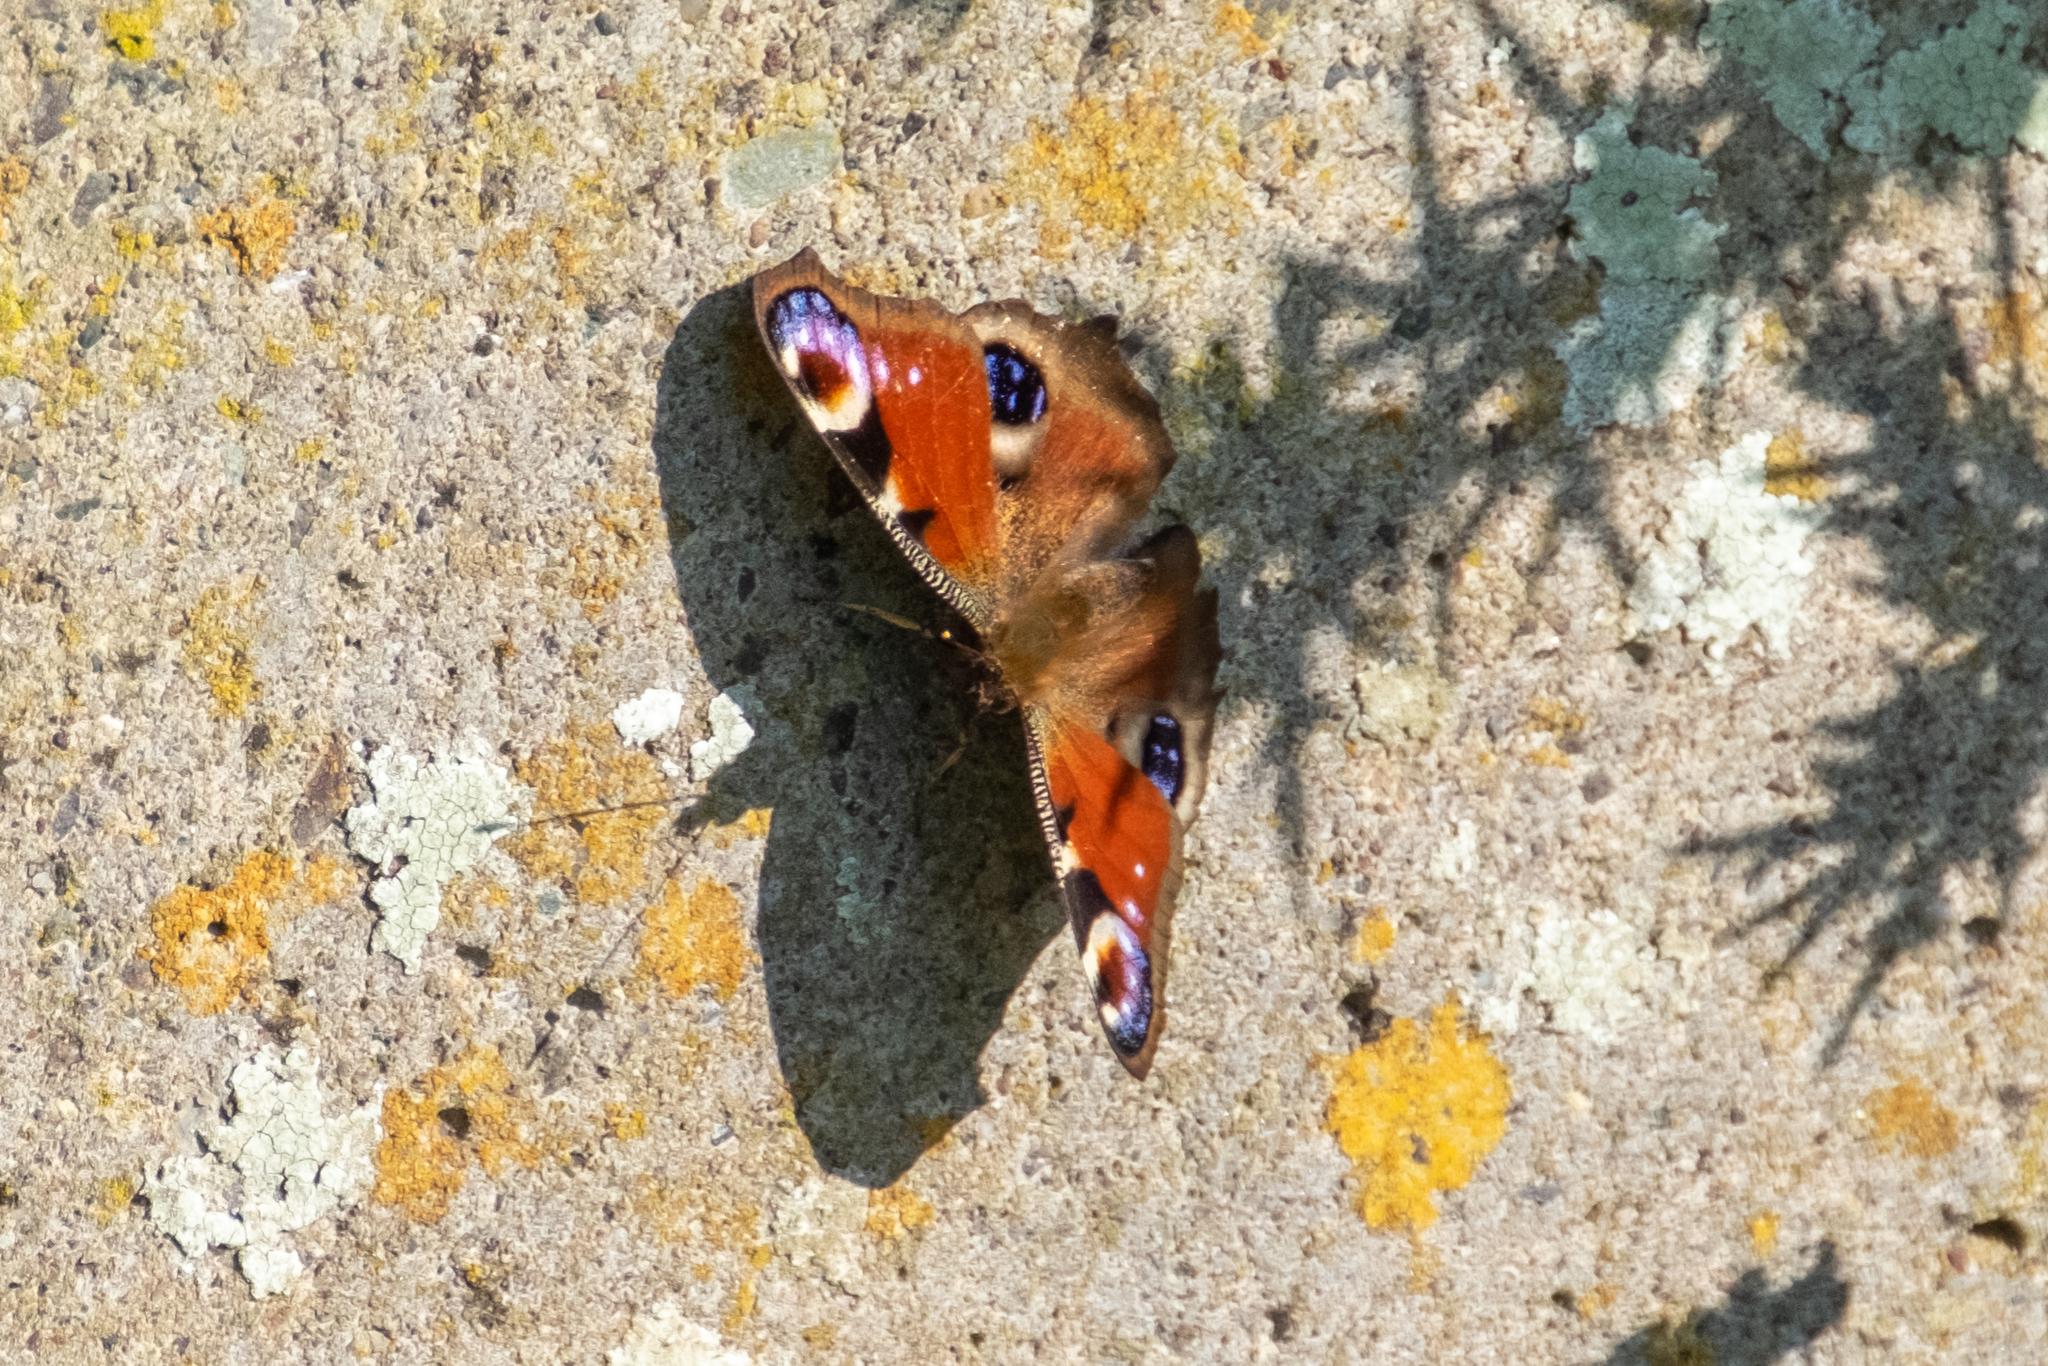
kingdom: Animalia
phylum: Arthropoda
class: Insecta
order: Lepidoptera
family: Nymphalidae
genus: Aglais
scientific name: Aglais io
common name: Peacock
